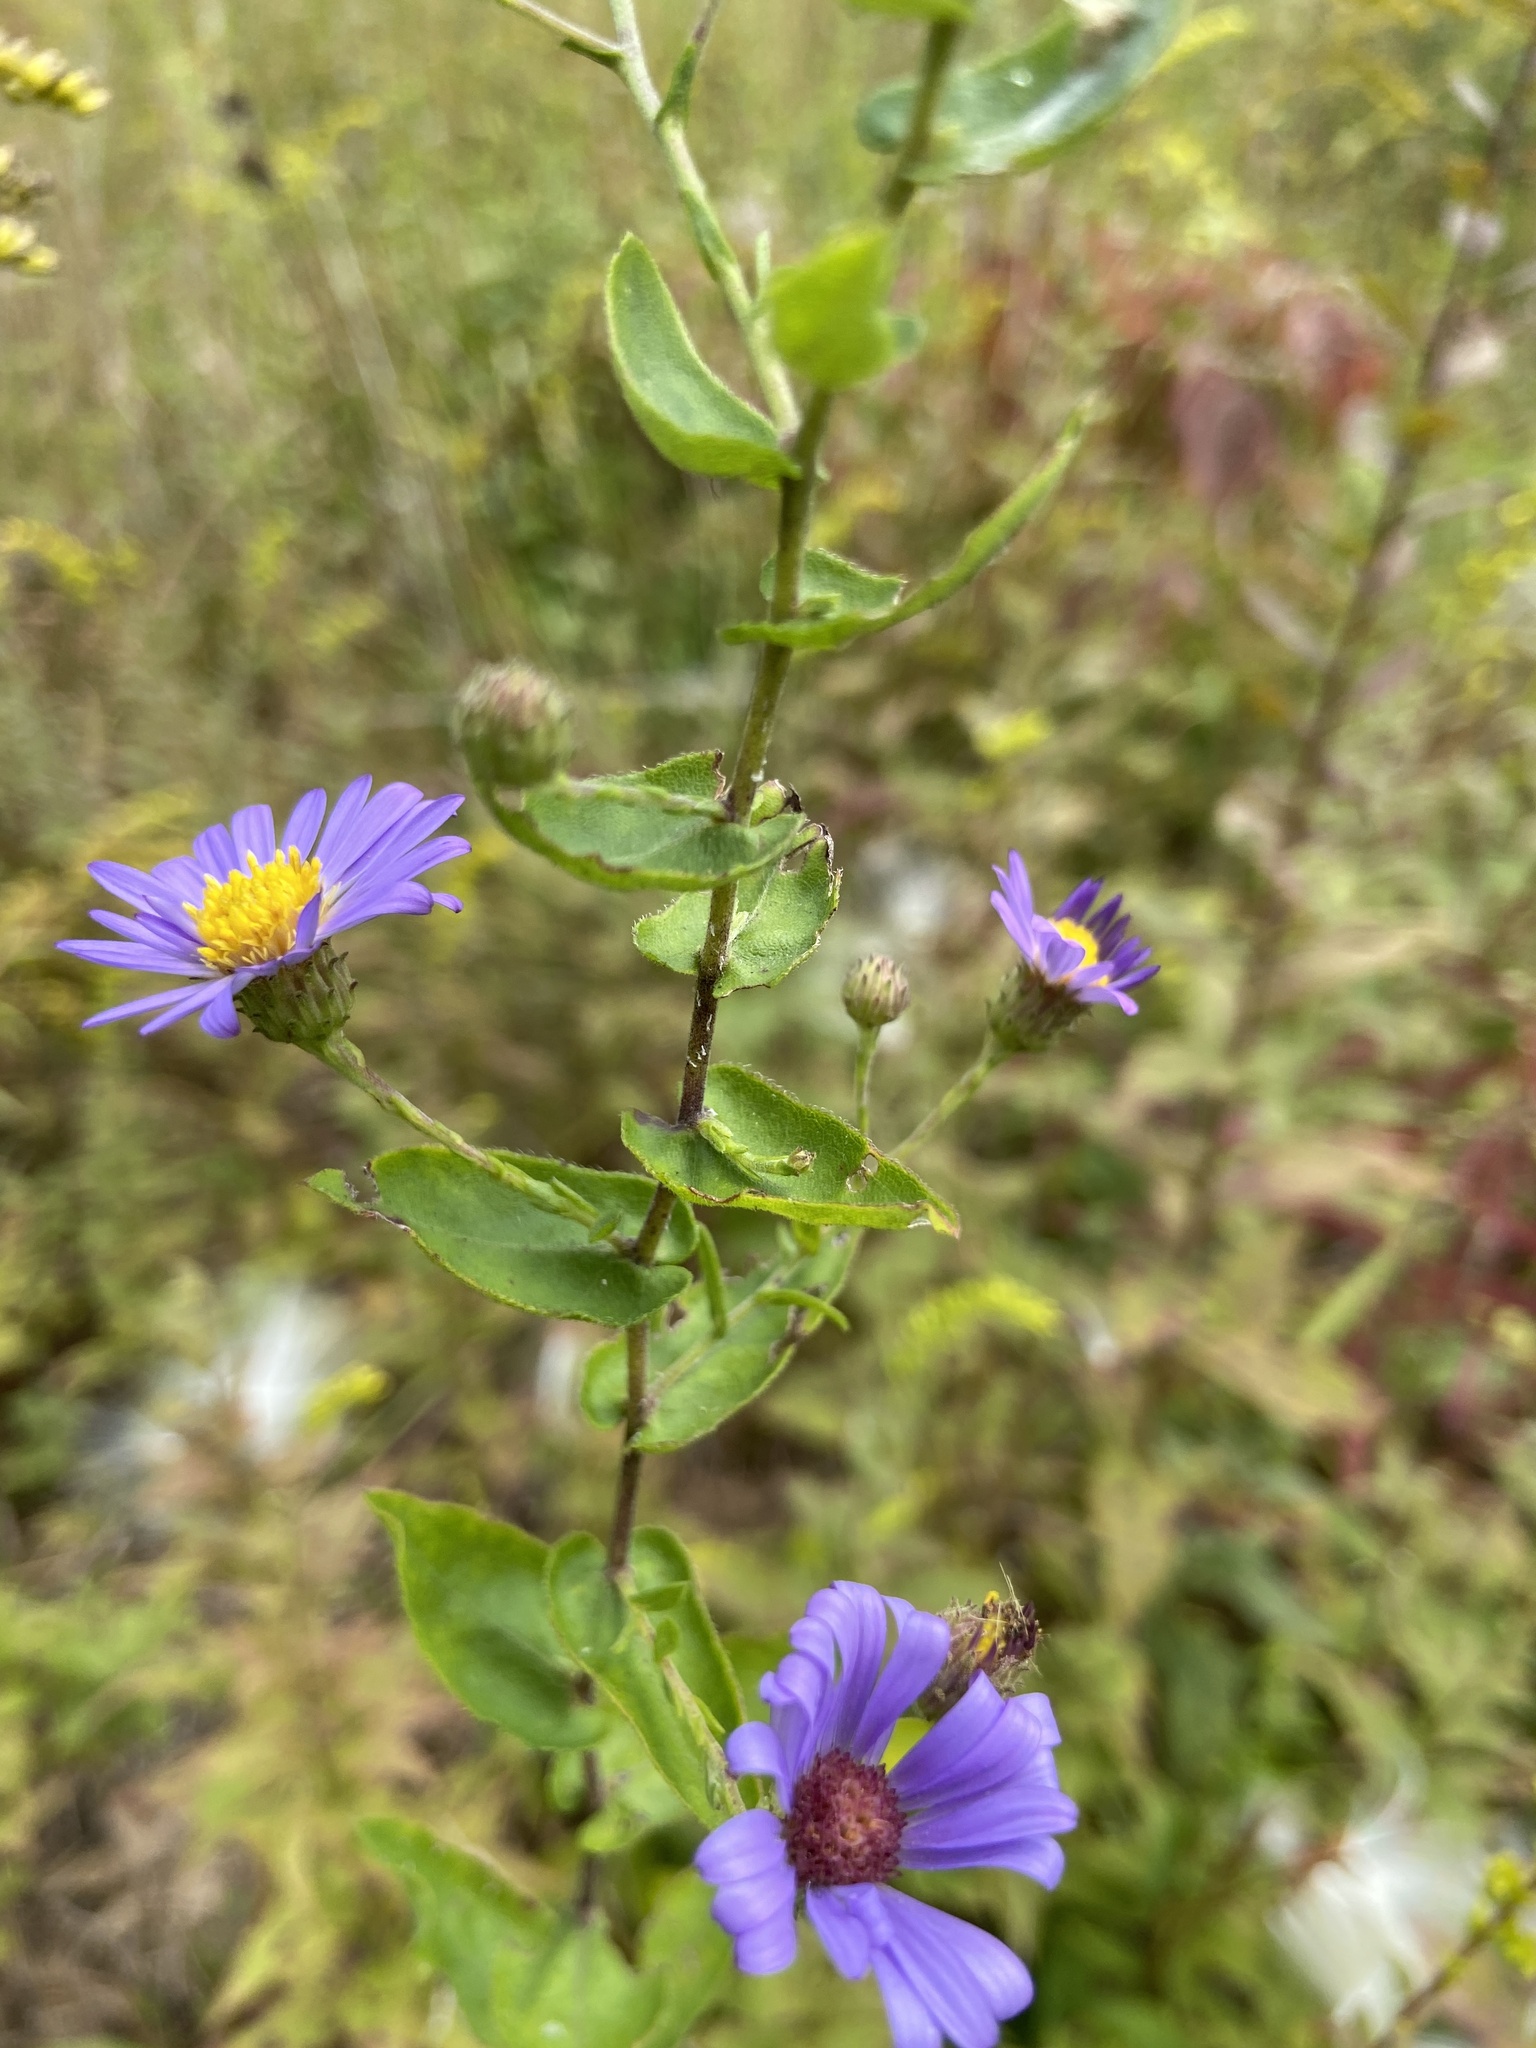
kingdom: Plantae
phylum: Tracheophyta
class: Magnoliopsida
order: Asterales
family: Asteraceae
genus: Symphyotrichum
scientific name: Symphyotrichum patens
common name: Late purple aster
